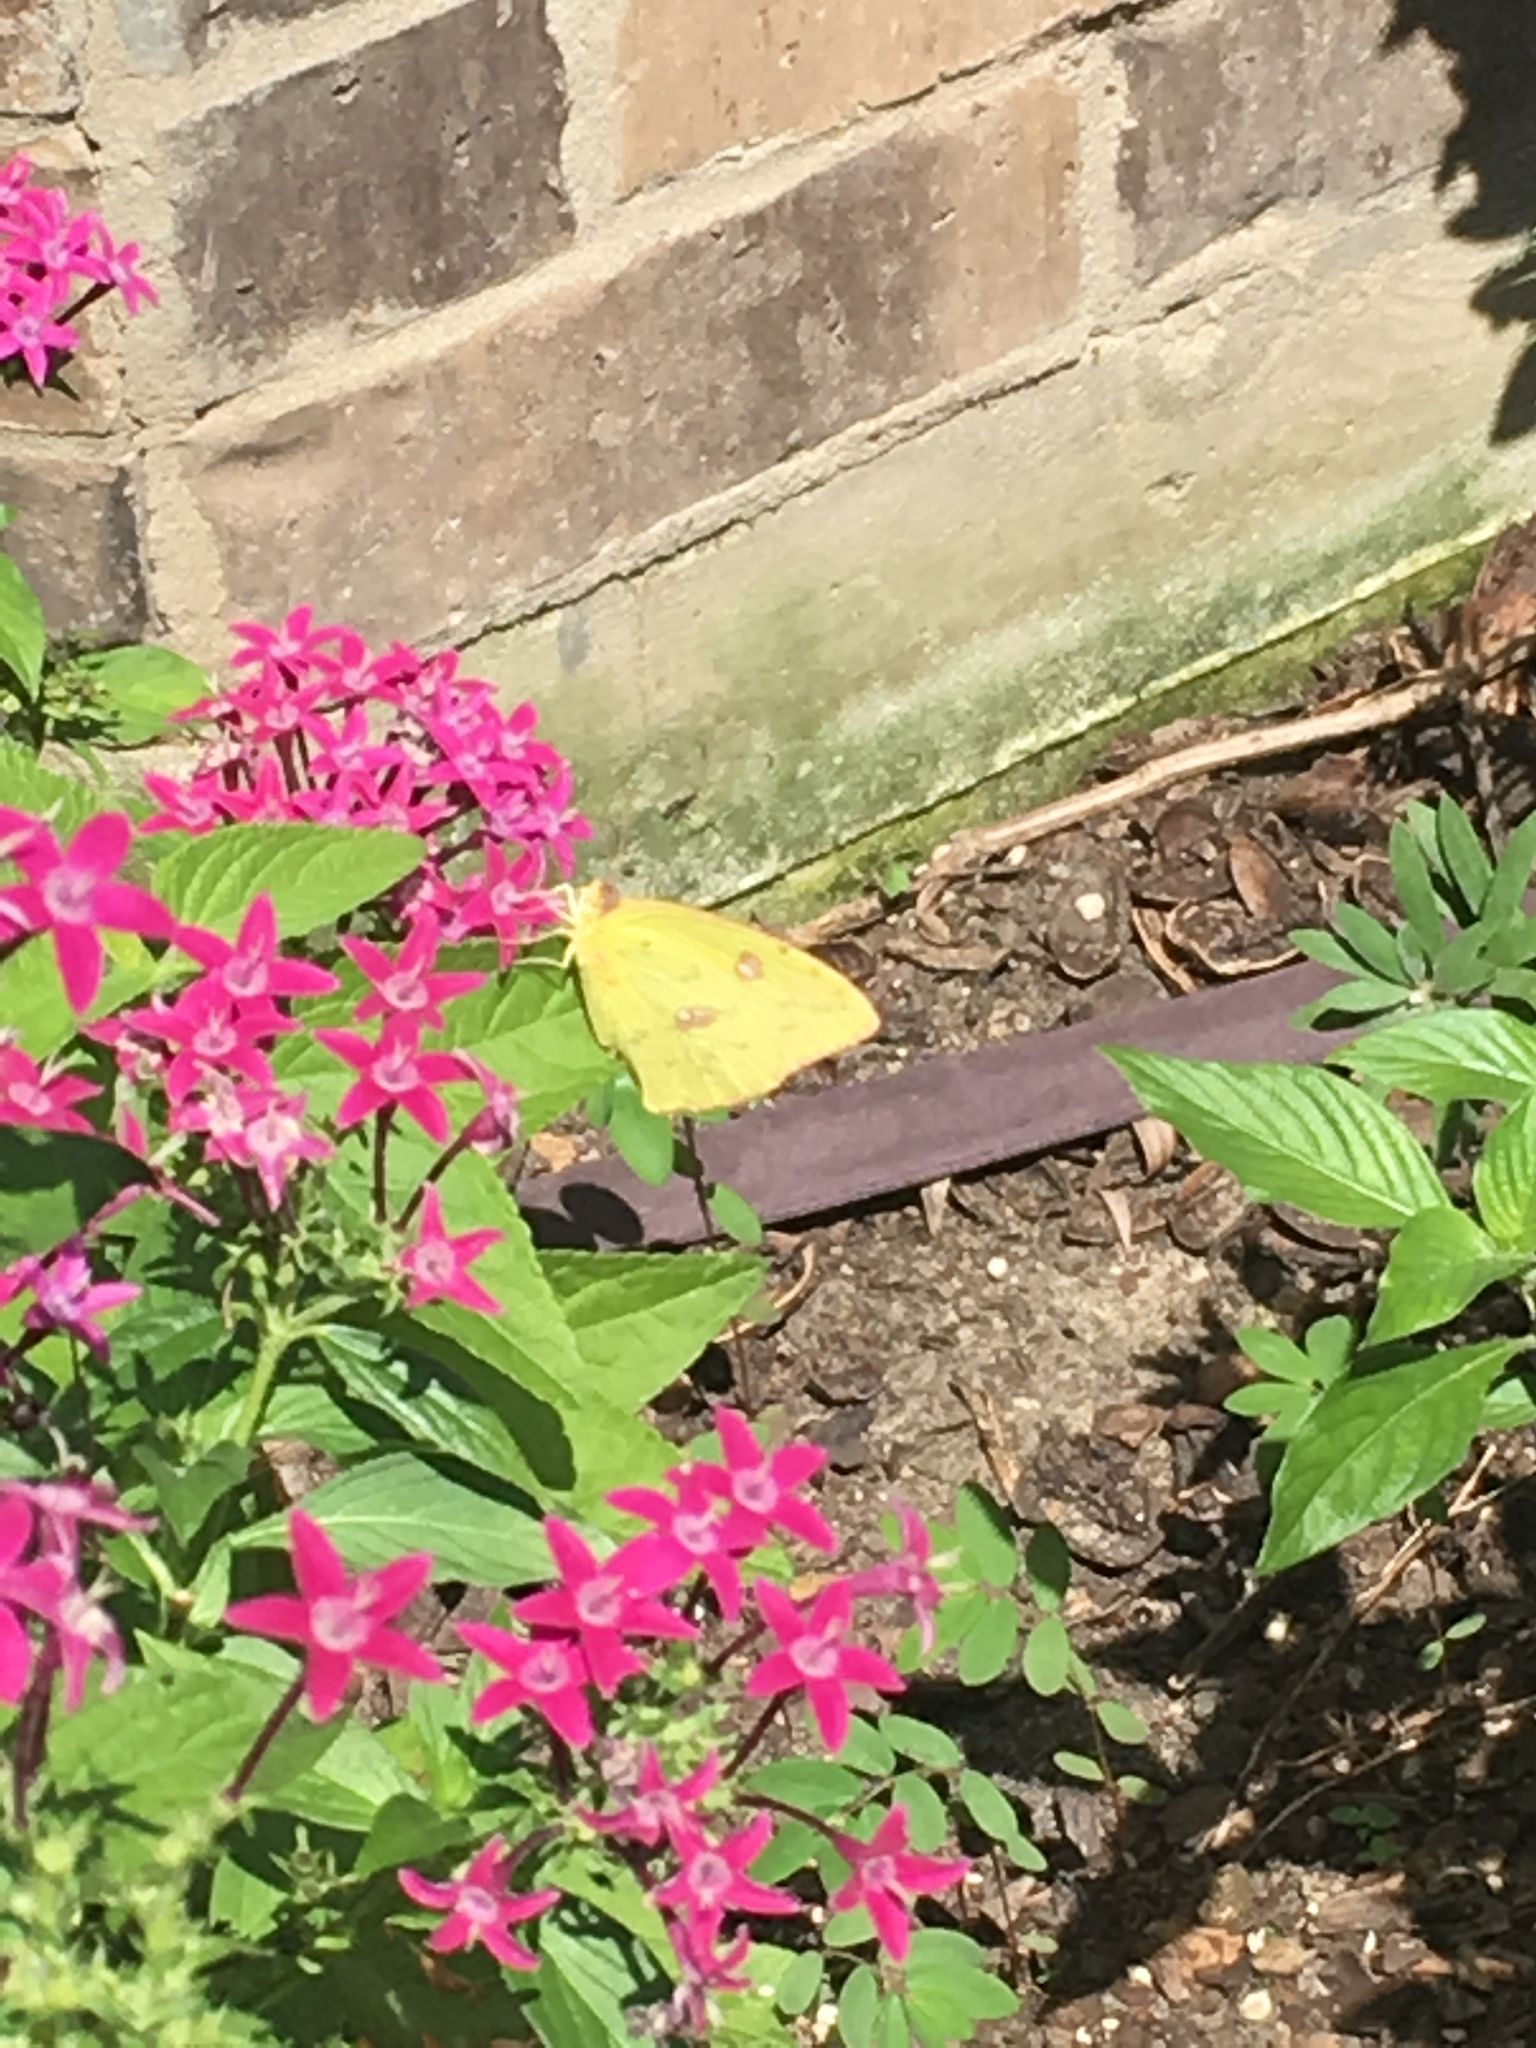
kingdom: Animalia
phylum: Arthropoda
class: Insecta
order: Lepidoptera
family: Pieridae
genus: Phoebis
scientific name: Phoebis sennae
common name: Cloudless sulphur
